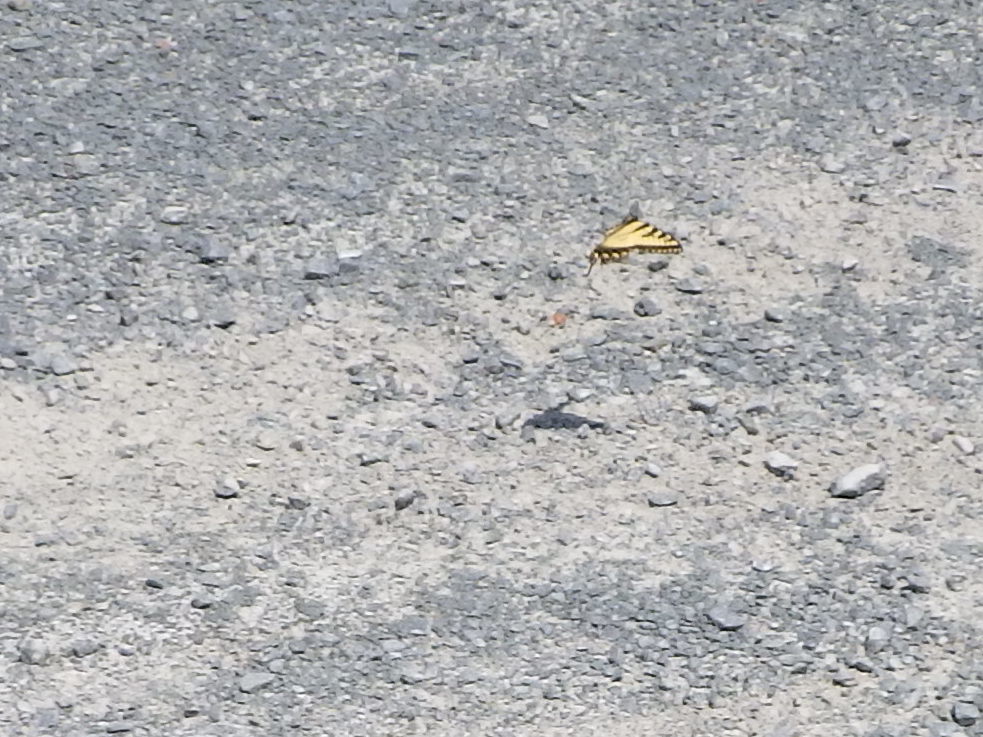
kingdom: Animalia
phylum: Arthropoda
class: Insecta
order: Lepidoptera
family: Papilionidae
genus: Papilio
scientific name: Papilio canadensis
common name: Canadian tiger swallowtail
